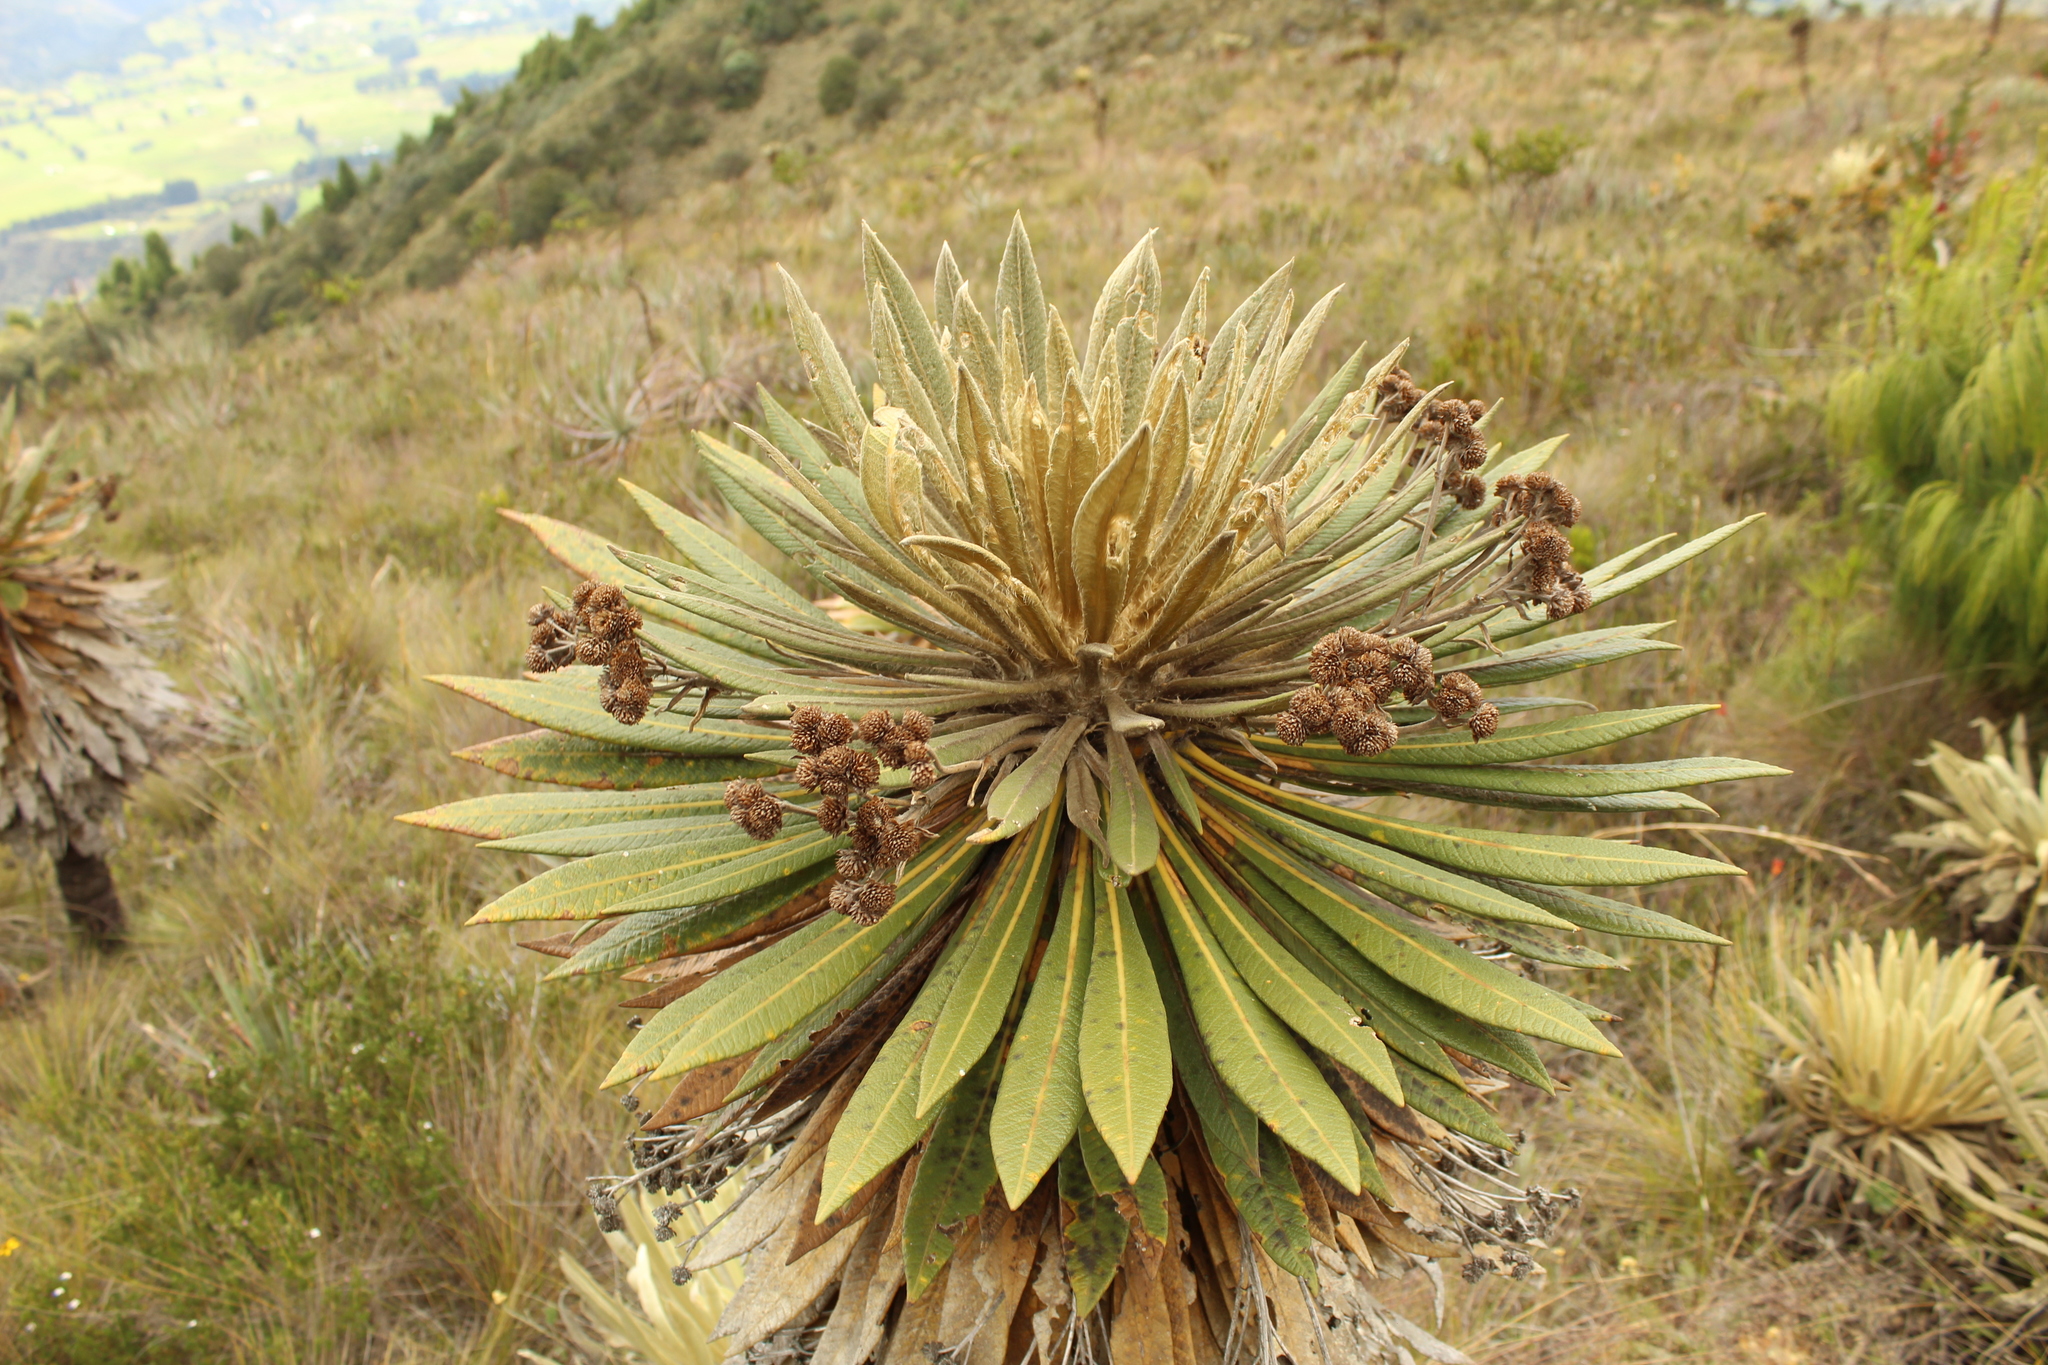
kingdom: Plantae
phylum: Tracheophyta
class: Magnoliopsida
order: Asterales
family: Asteraceae
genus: Espeletia
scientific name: Espeletia guacharaca
